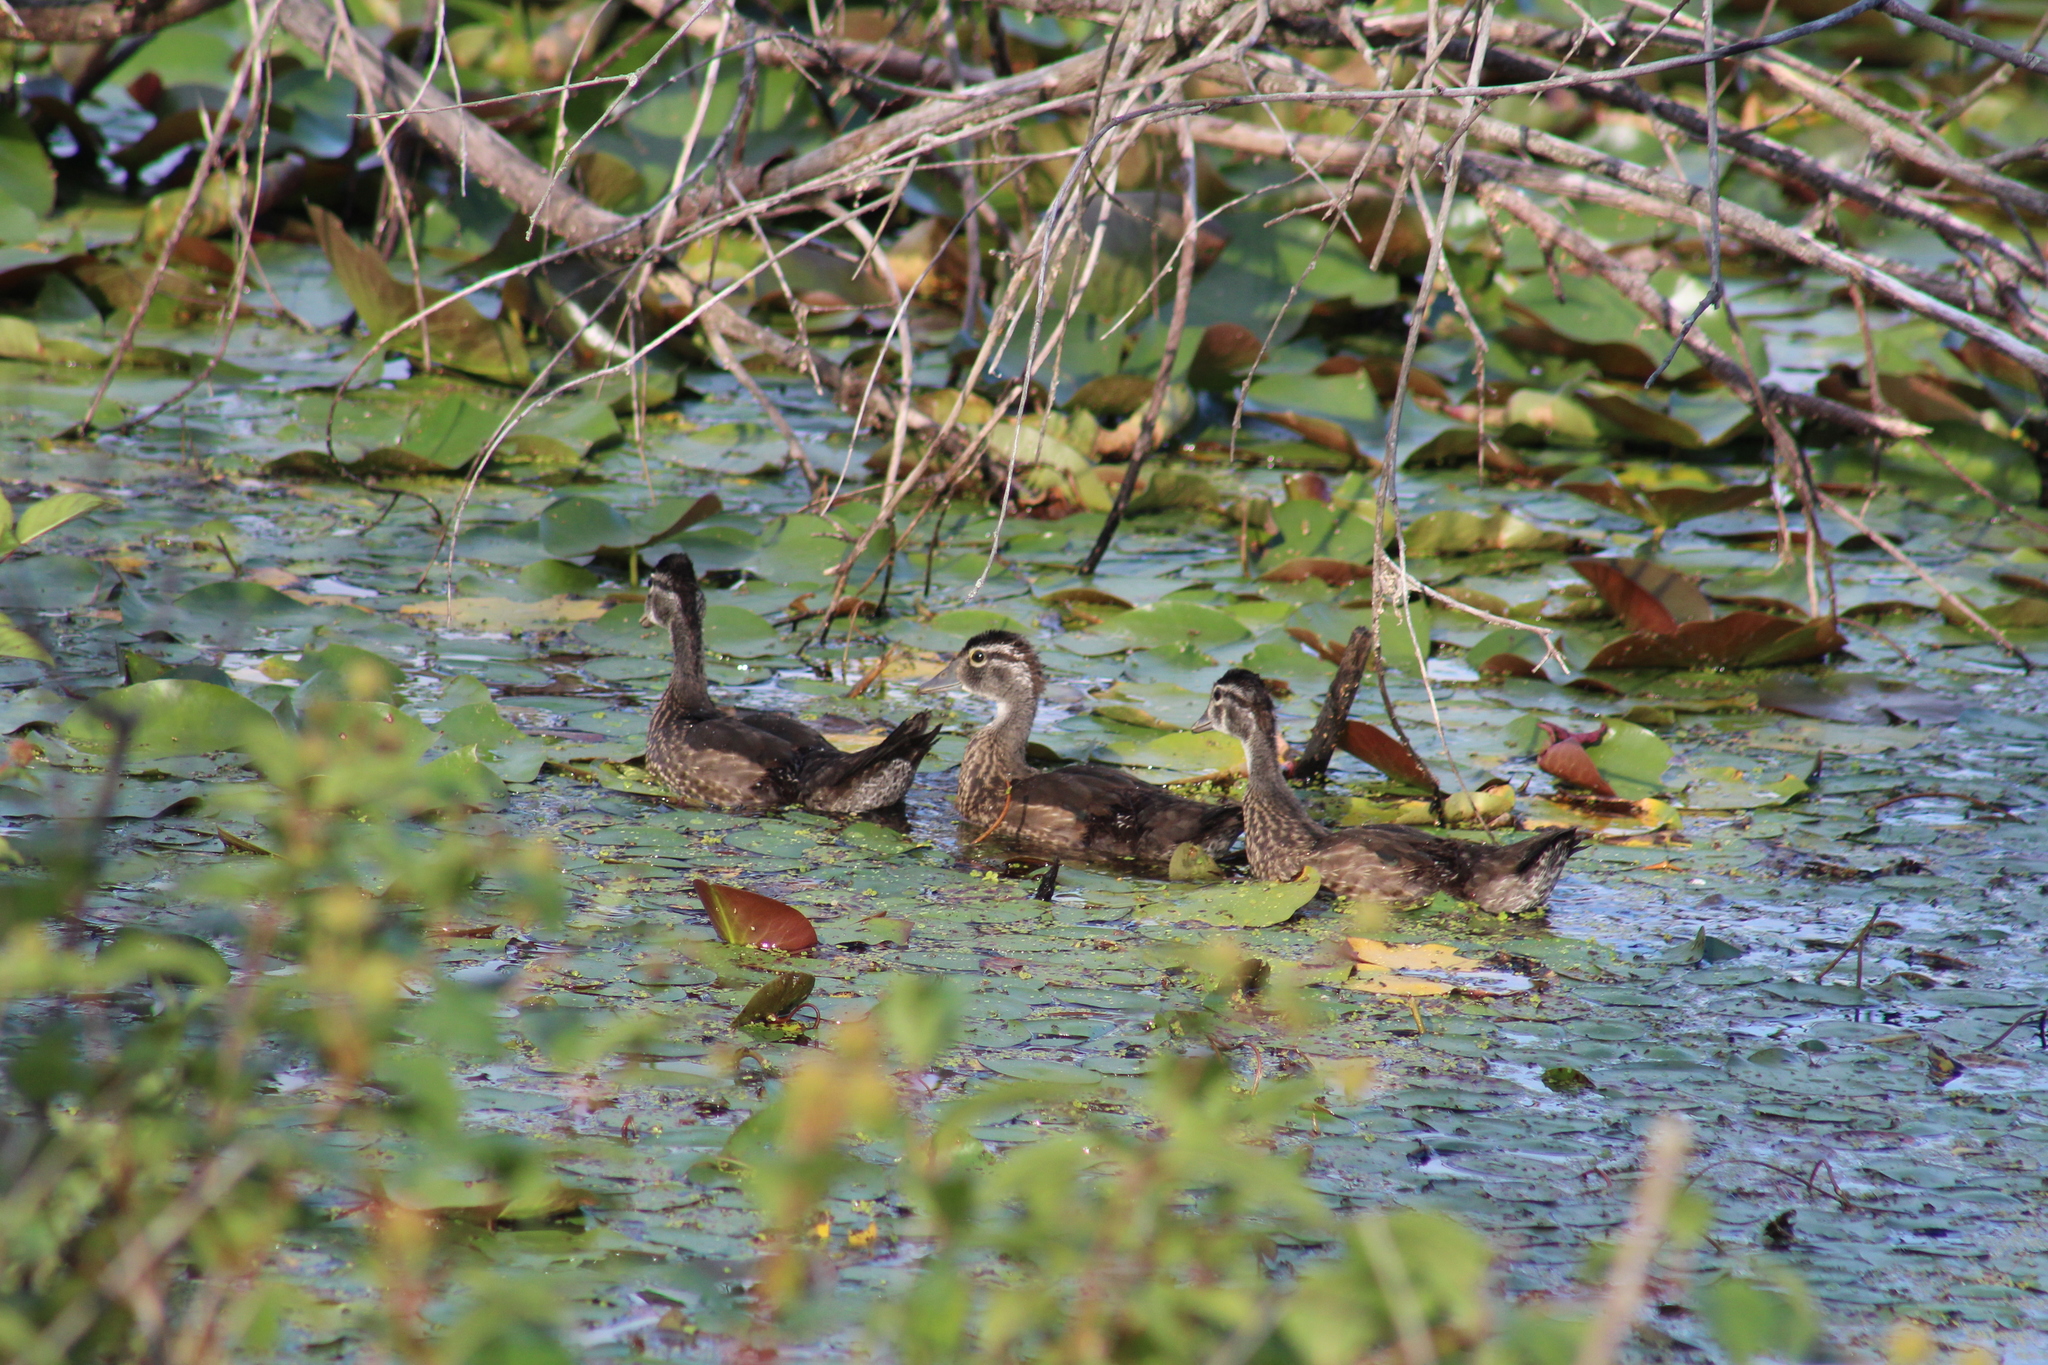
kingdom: Animalia
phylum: Chordata
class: Aves
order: Anseriformes
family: Anatidae
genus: Aix
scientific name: Aix sponsa
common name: Wood duck
